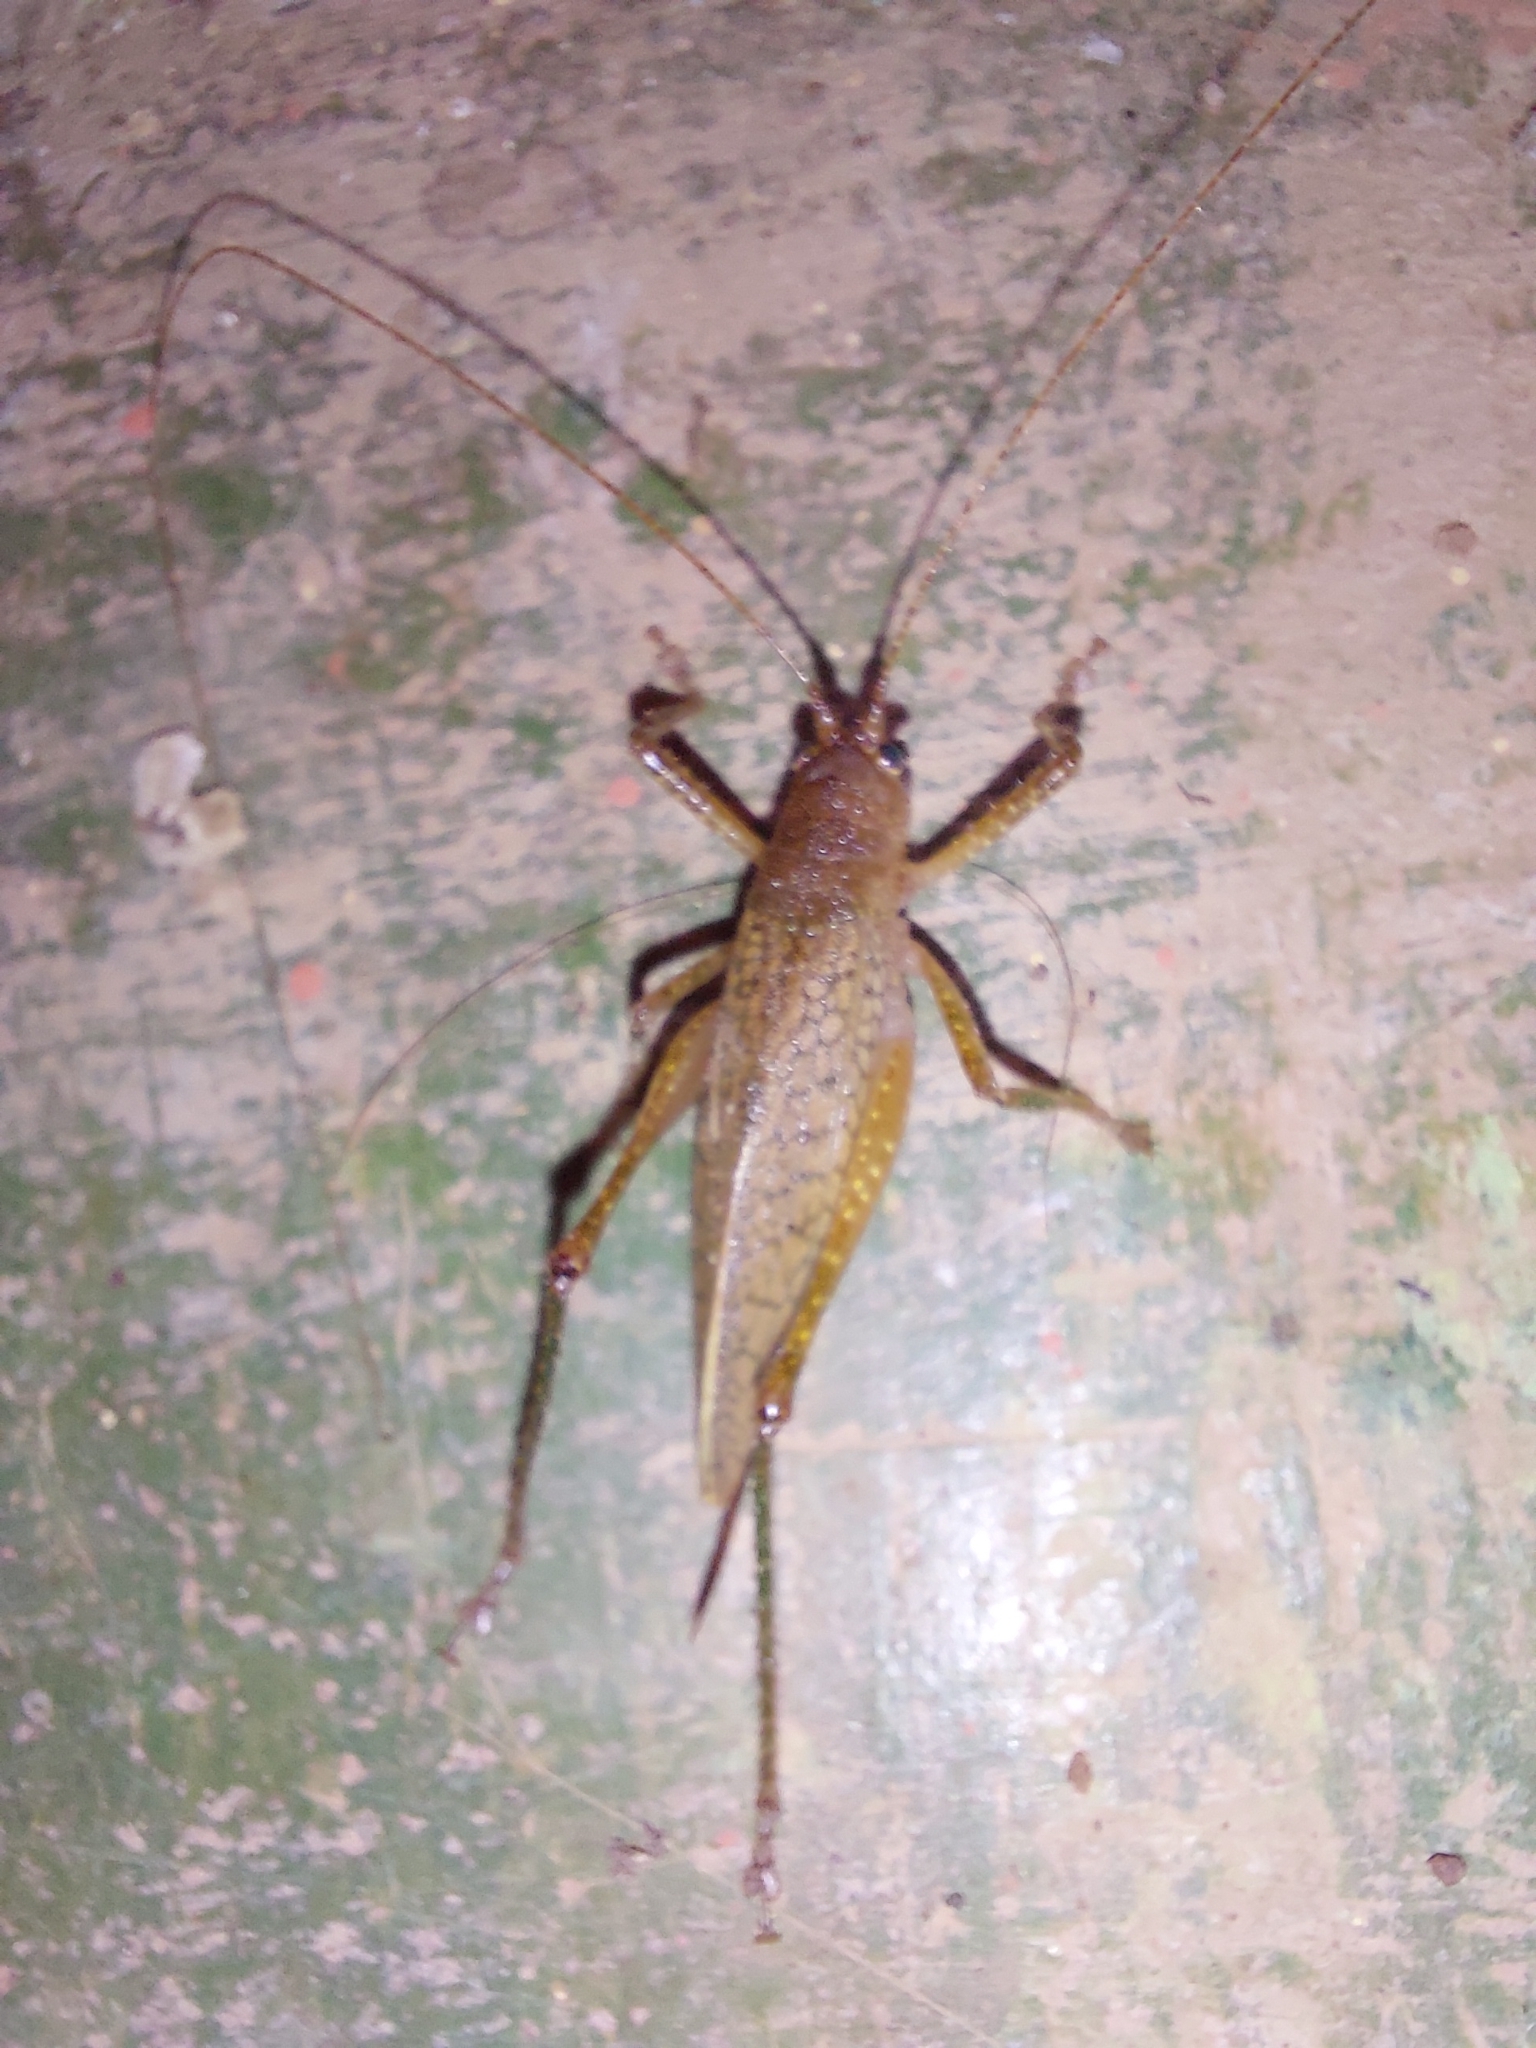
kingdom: Animalia
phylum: Arthropoda
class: Insecta
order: Orthoptera
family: Tettigoniidae
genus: Thamnobates
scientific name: Thamnobates subfalcata
